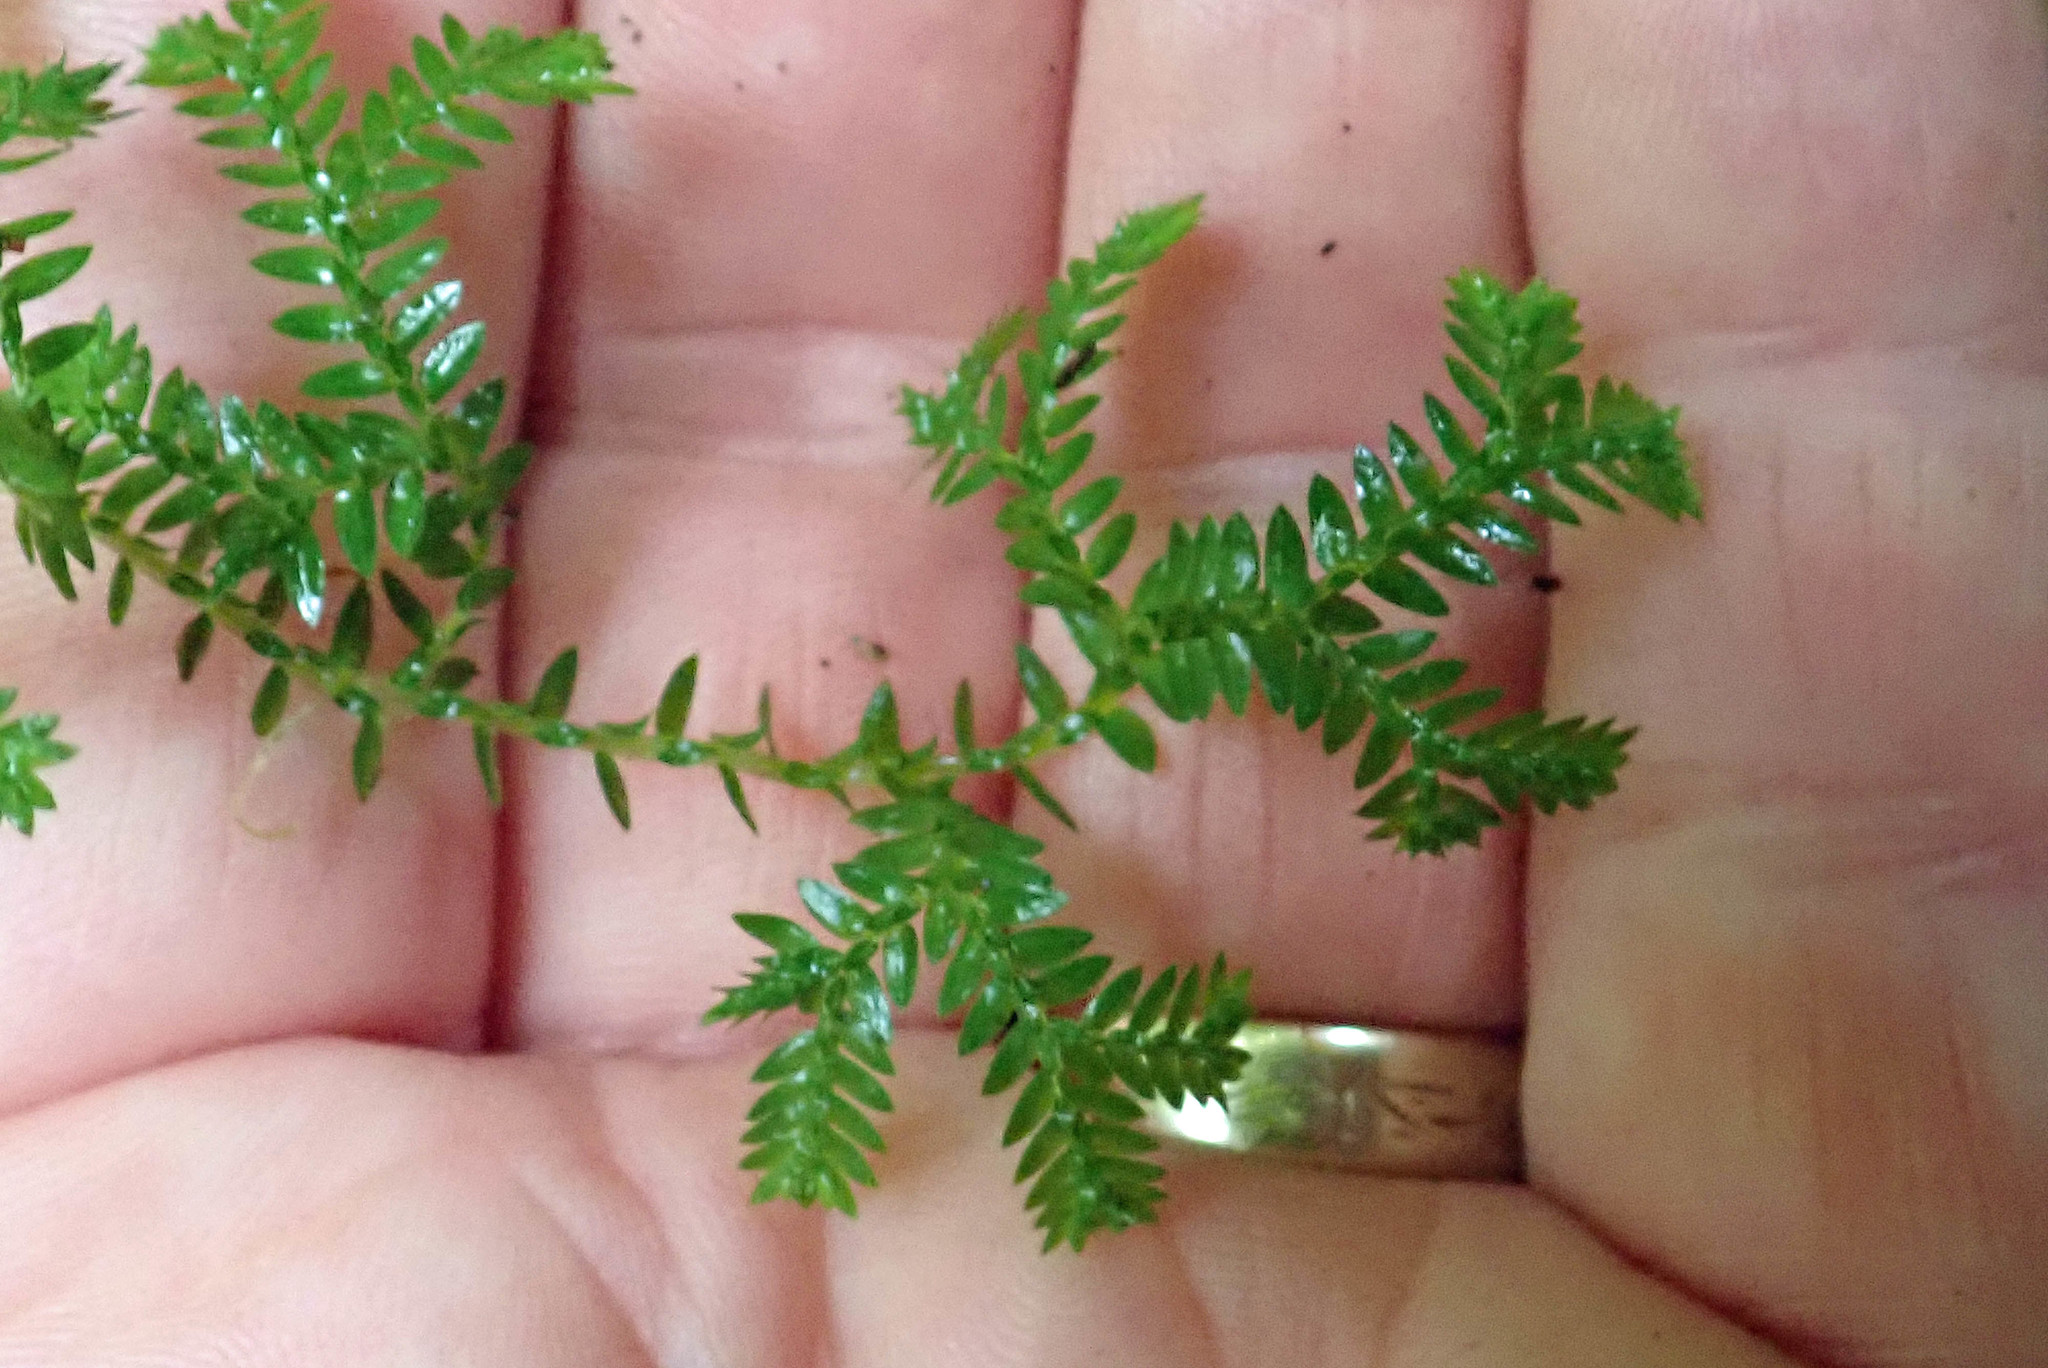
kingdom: Plantae
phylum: Tracheophyta
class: Lycopodiopsida
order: Selaginellales
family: Selaginellaceae
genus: Selaginella
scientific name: Selaginella kraussiana
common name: Krauss' spikemoss
